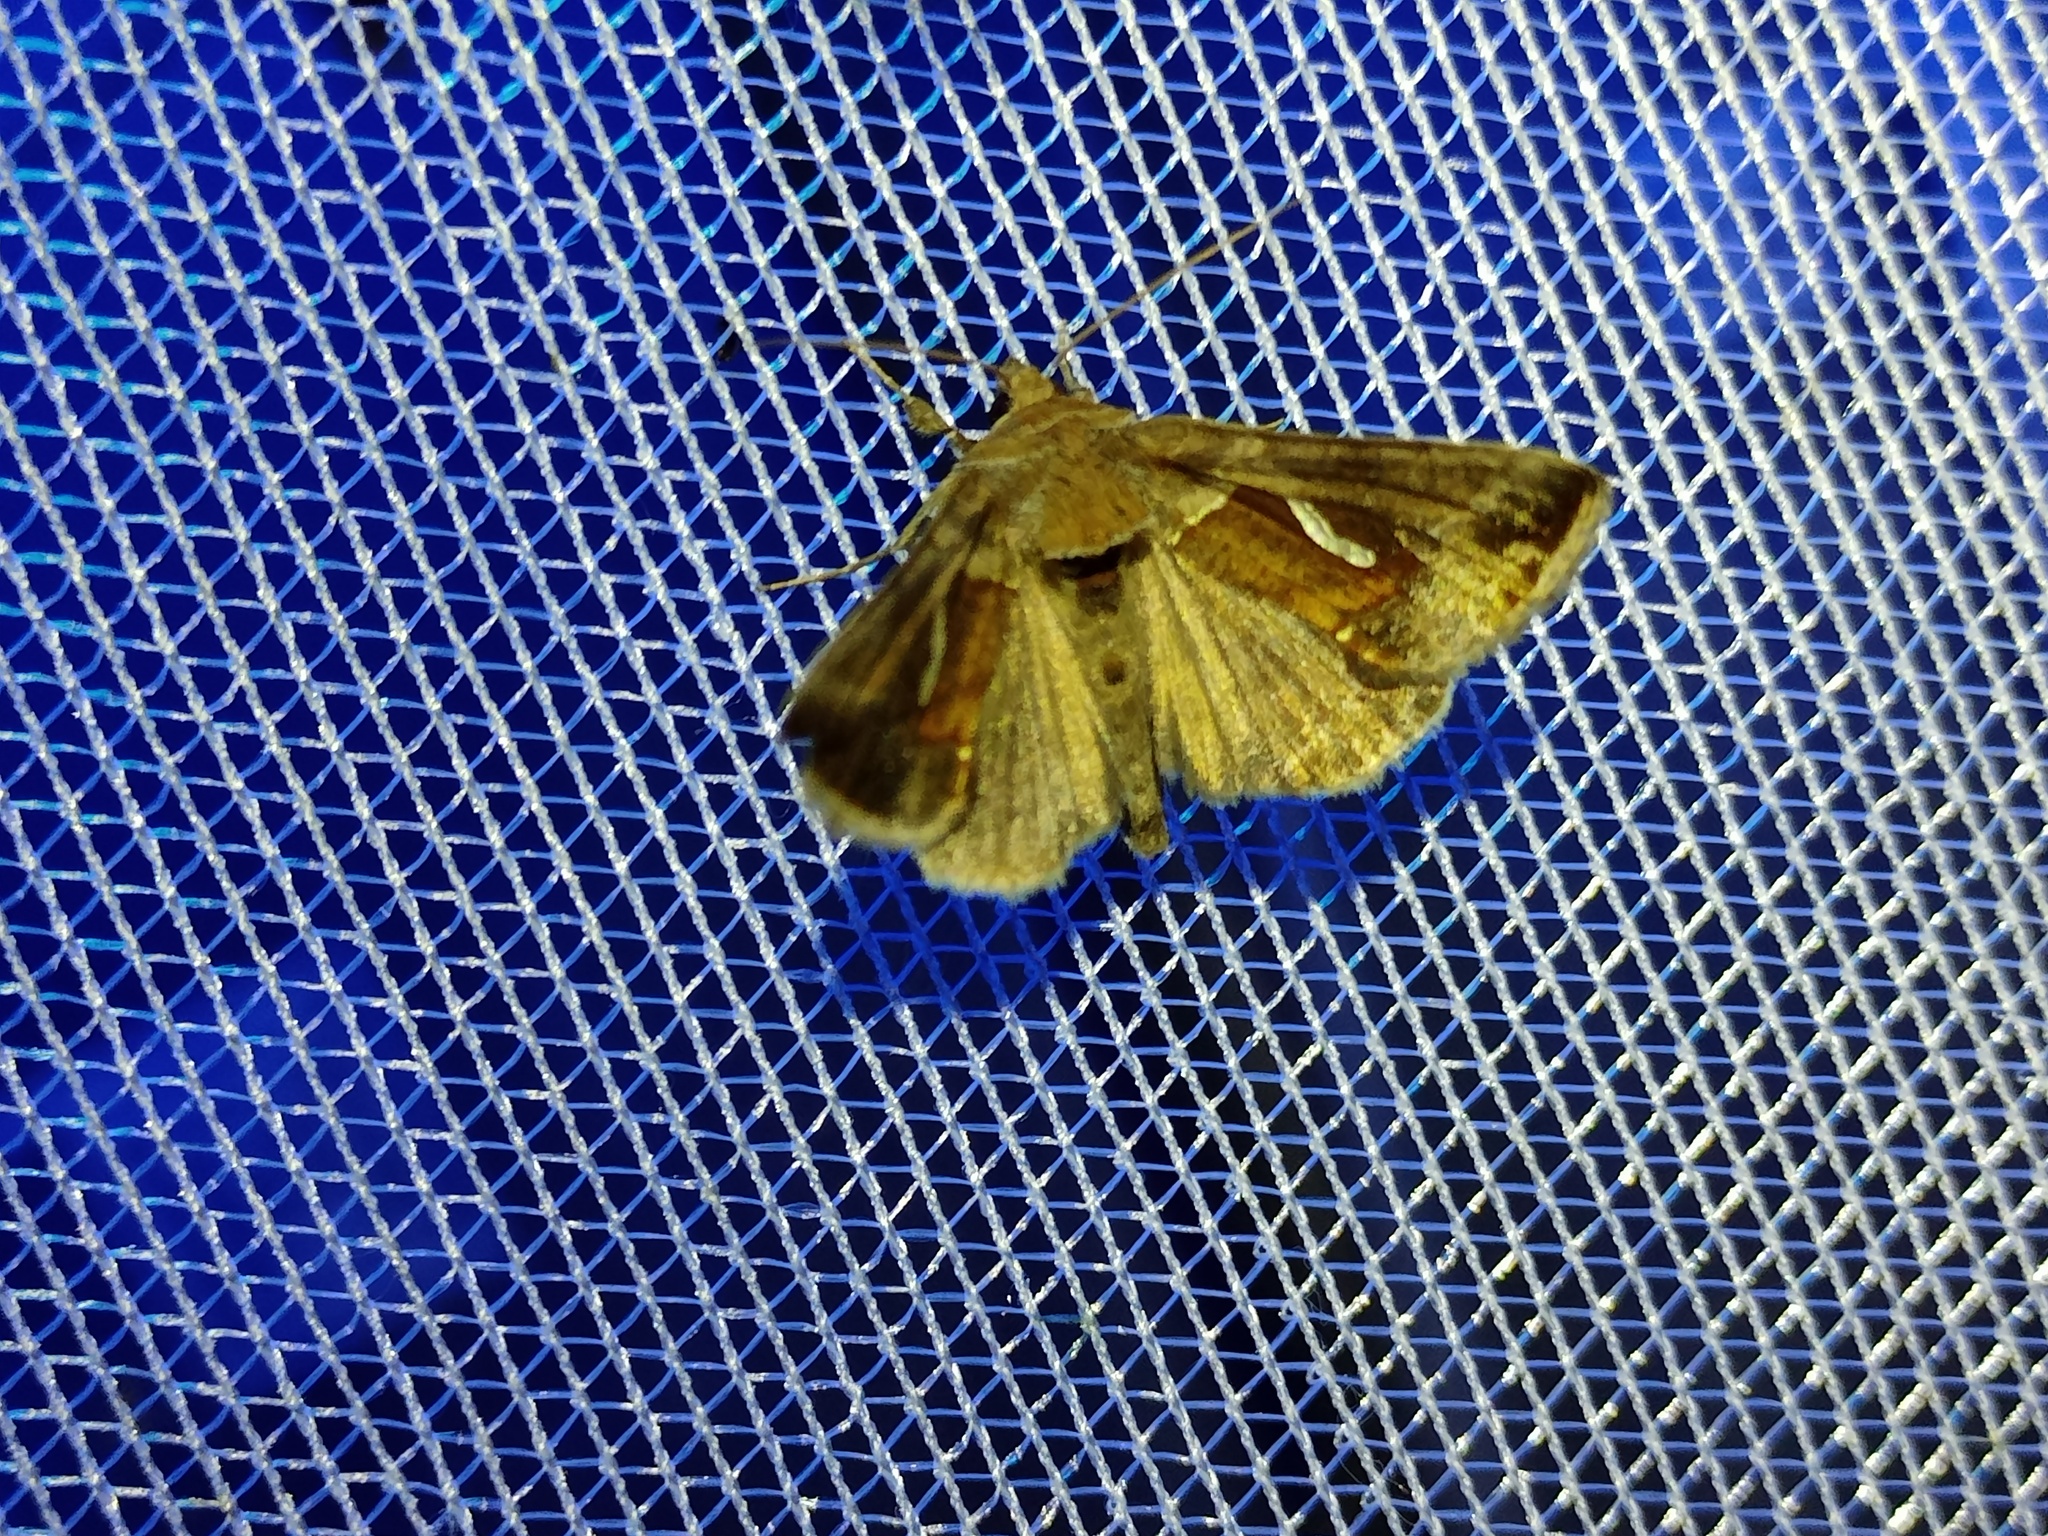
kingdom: Animalia
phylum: Arthropoda
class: Insecta
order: Lepidoptera
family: Noctuidae
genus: Macdunnoughia
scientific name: Macdunnoughia confusa
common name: Dewick's plusia
